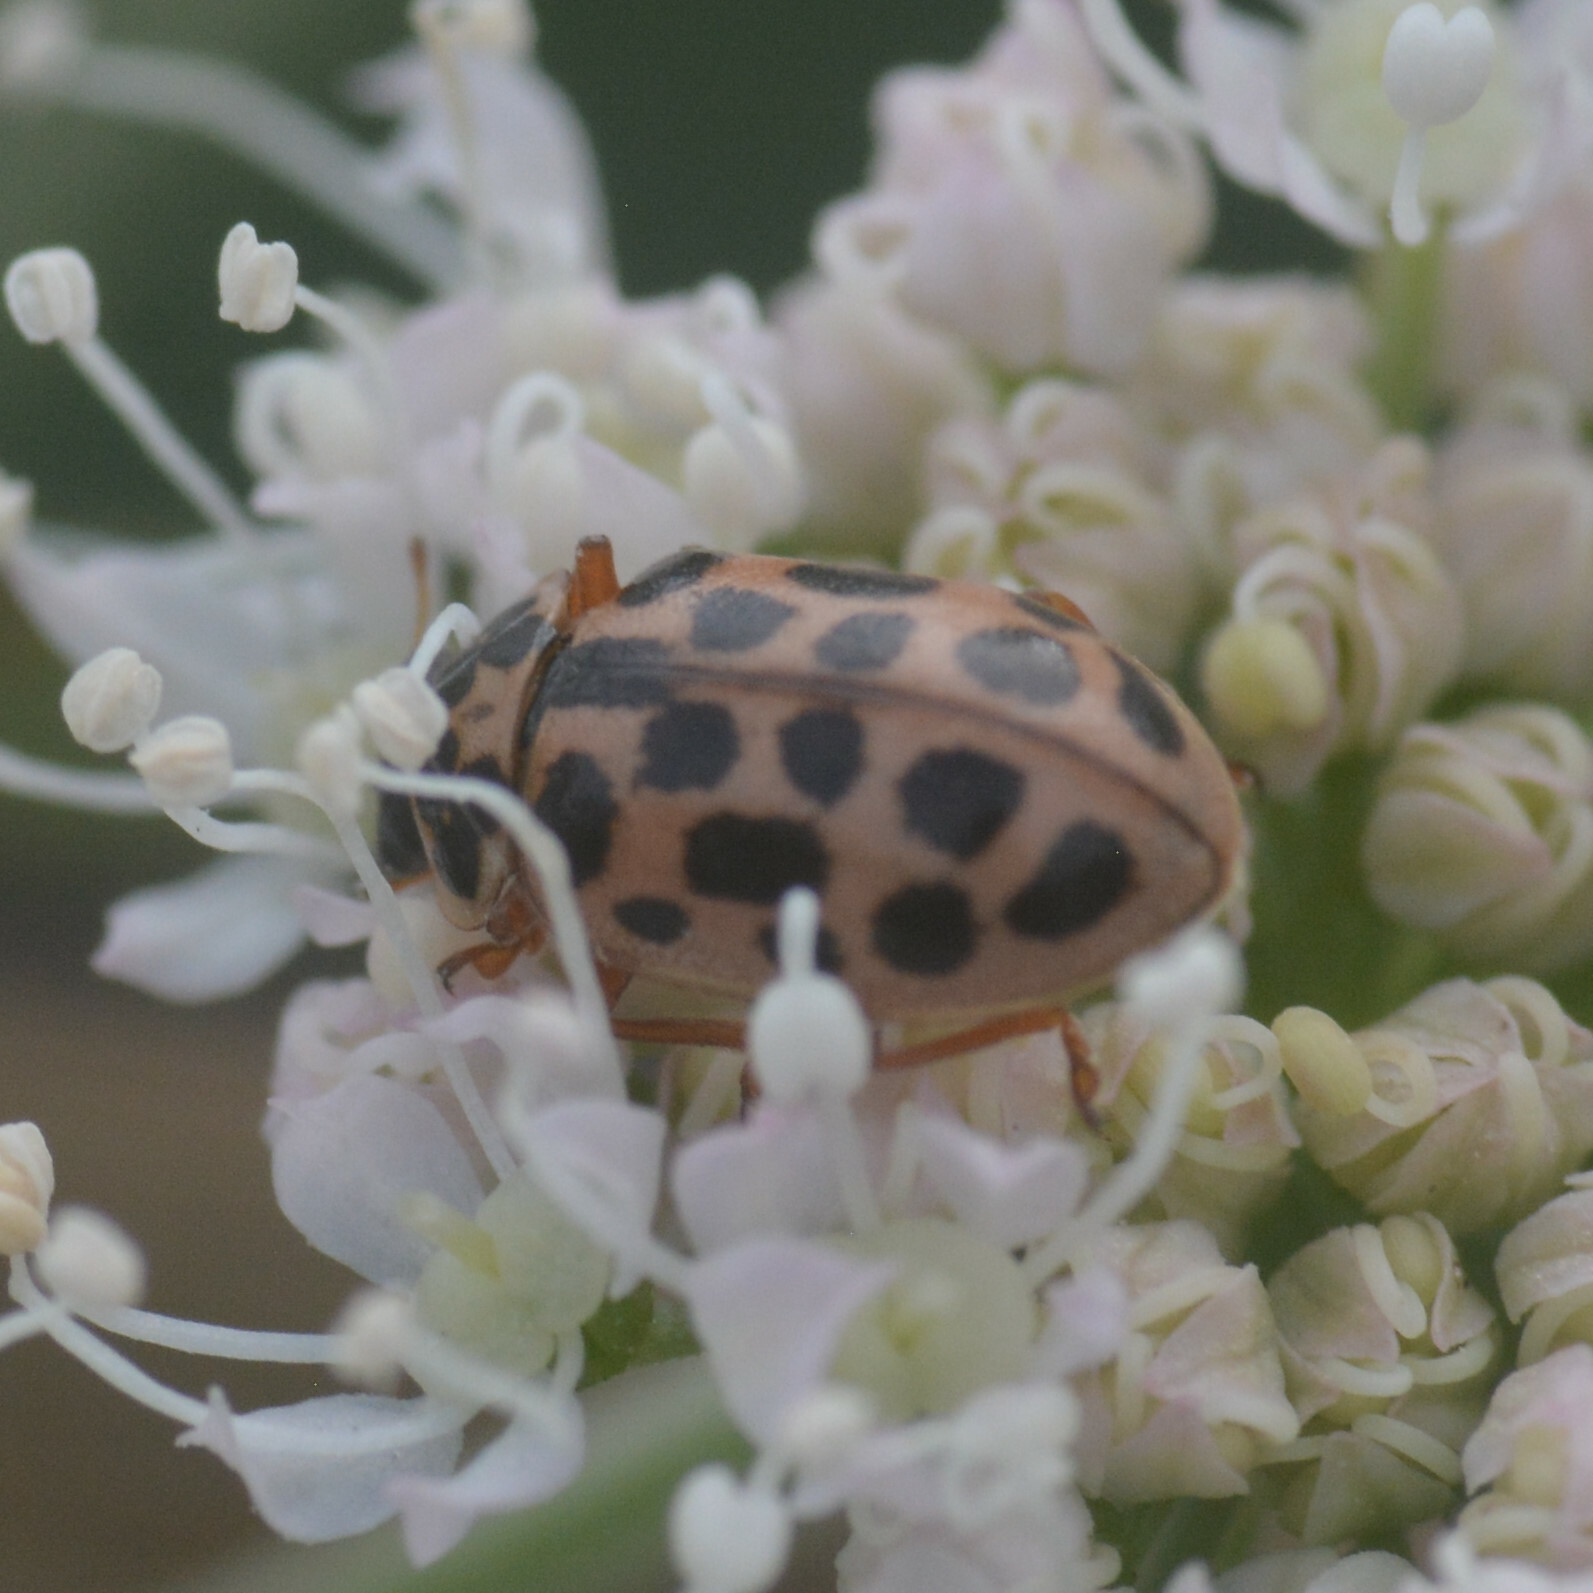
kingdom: Animalia
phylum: Arthropoda
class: Insecta
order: Coleoptera
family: Coccinellidae
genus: Anisosticta
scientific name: Anisosticta novemdecimpunctata
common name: Water ladybird
